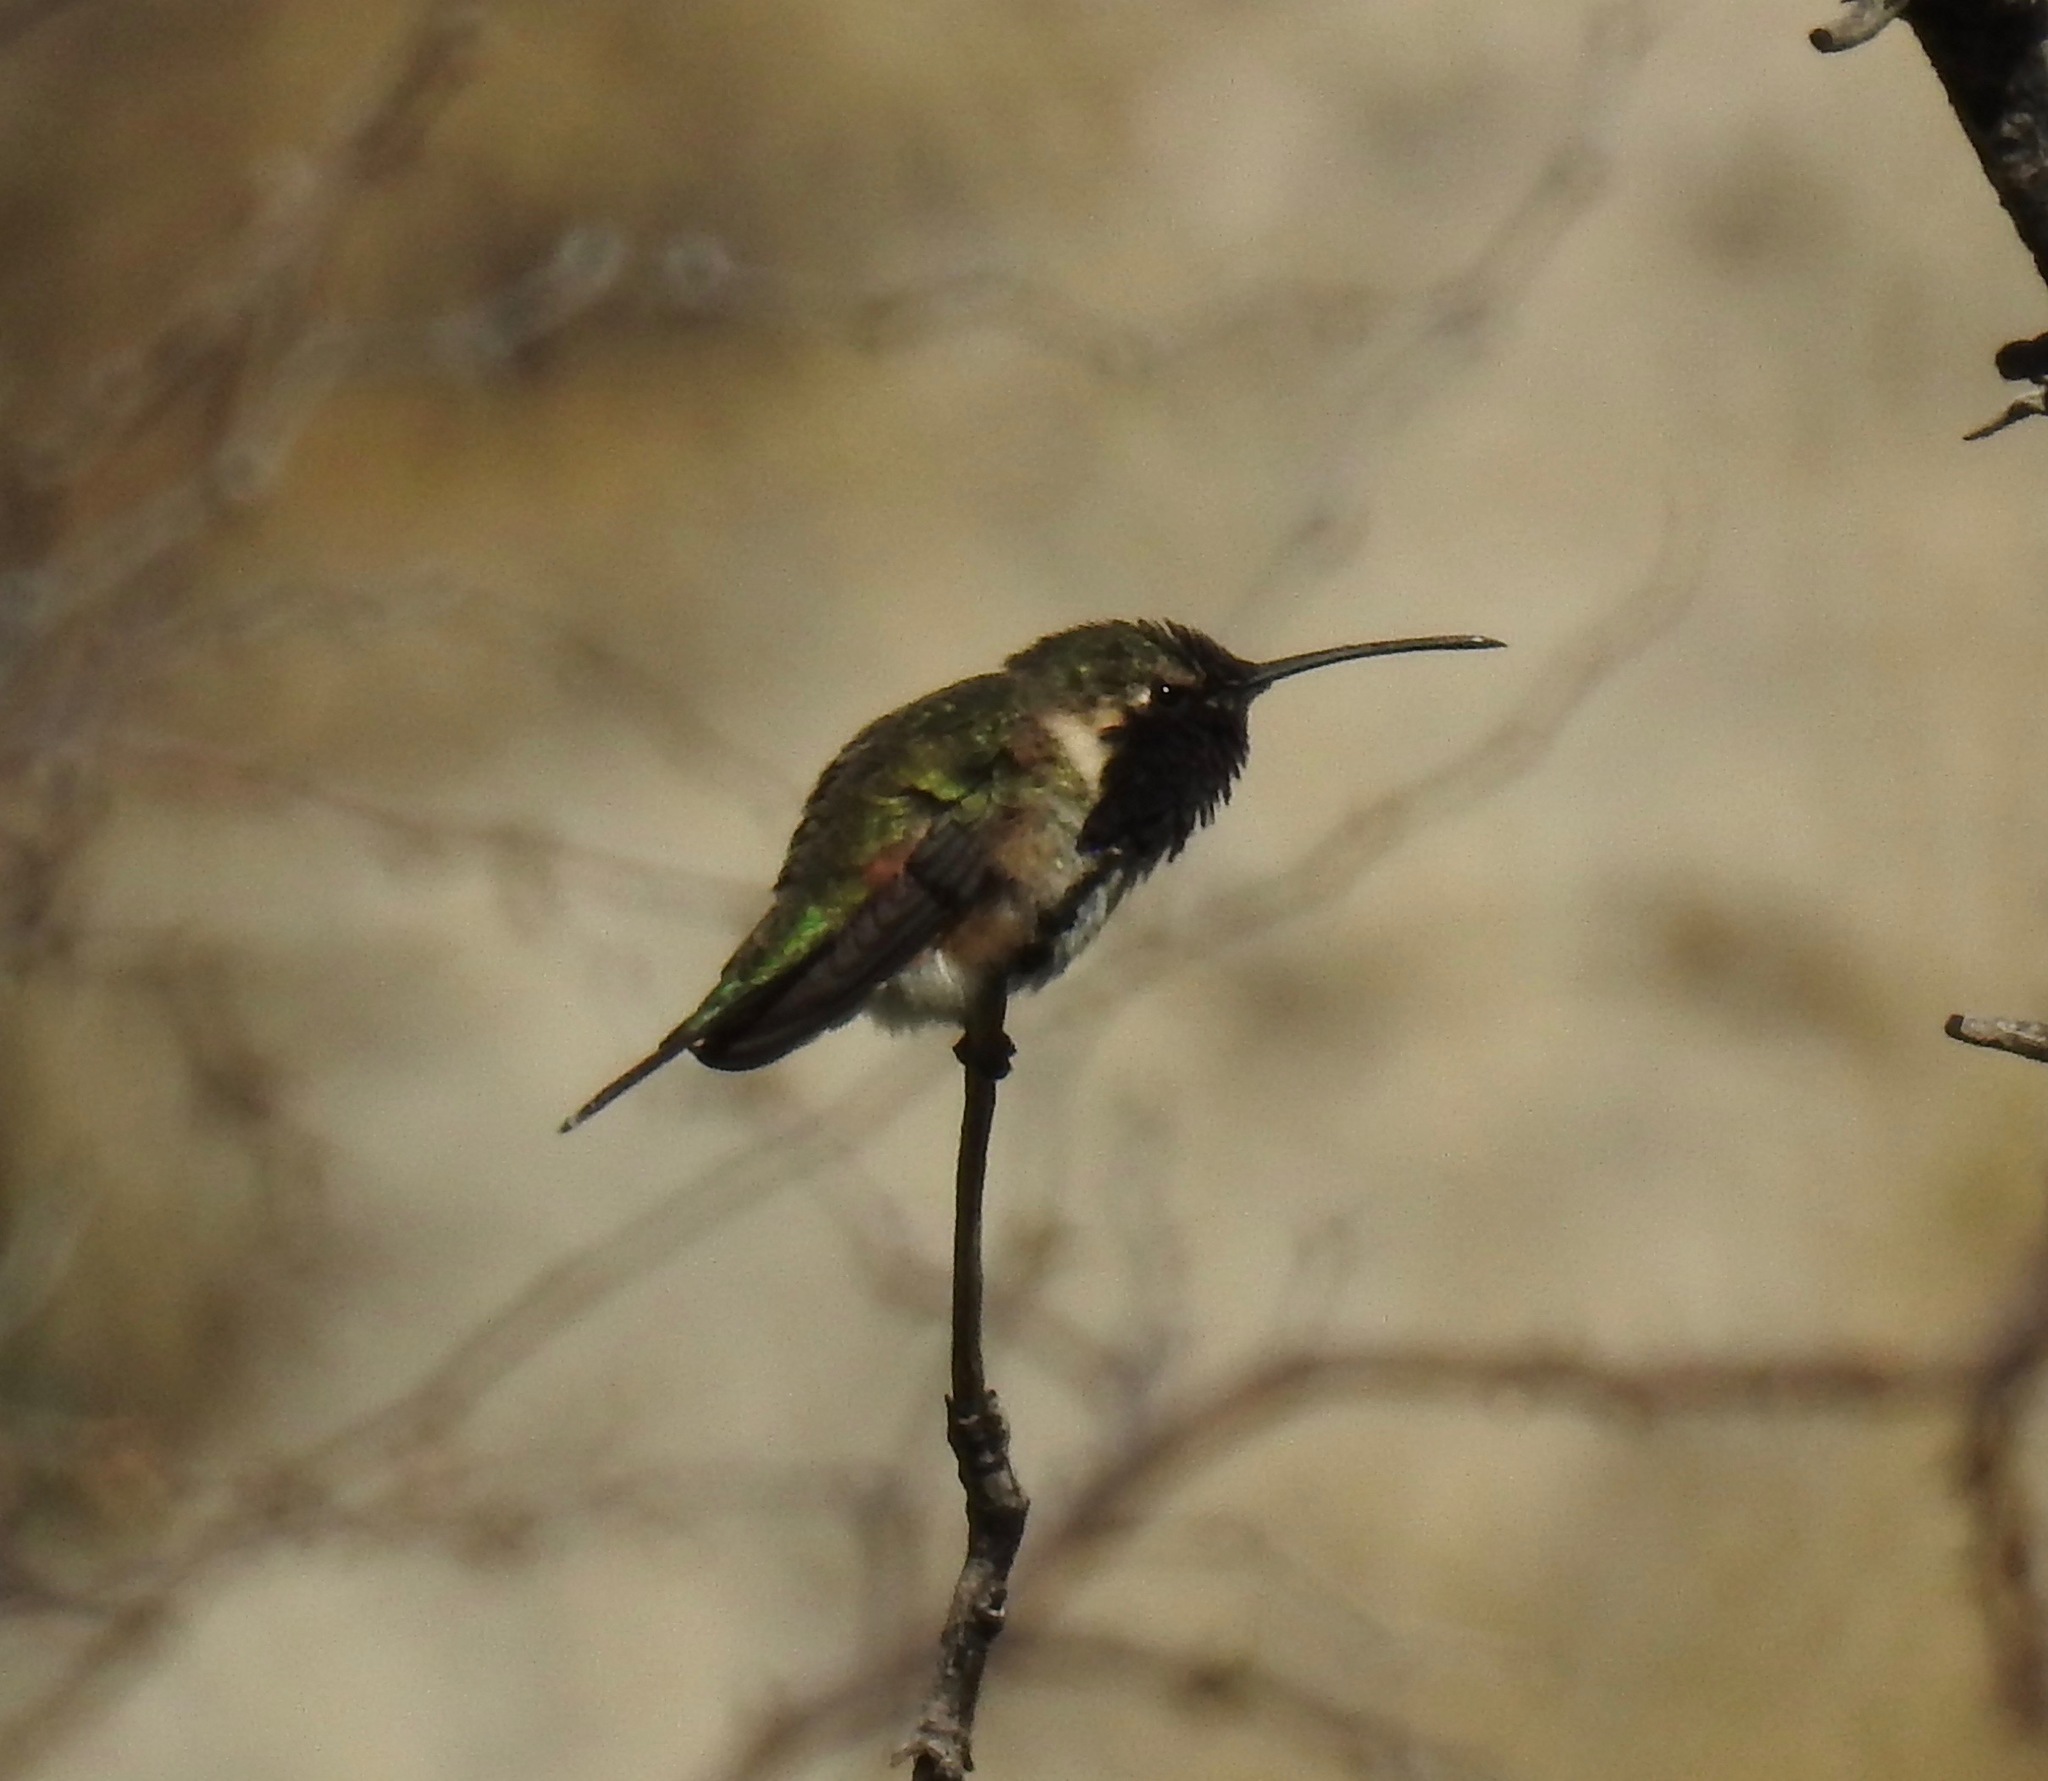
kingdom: Animalia
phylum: Chordata
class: Aves
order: Apodiformes
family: Trochilidae
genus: Calothorax
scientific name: Calothorax lucifer
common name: Lucifer sheartail
